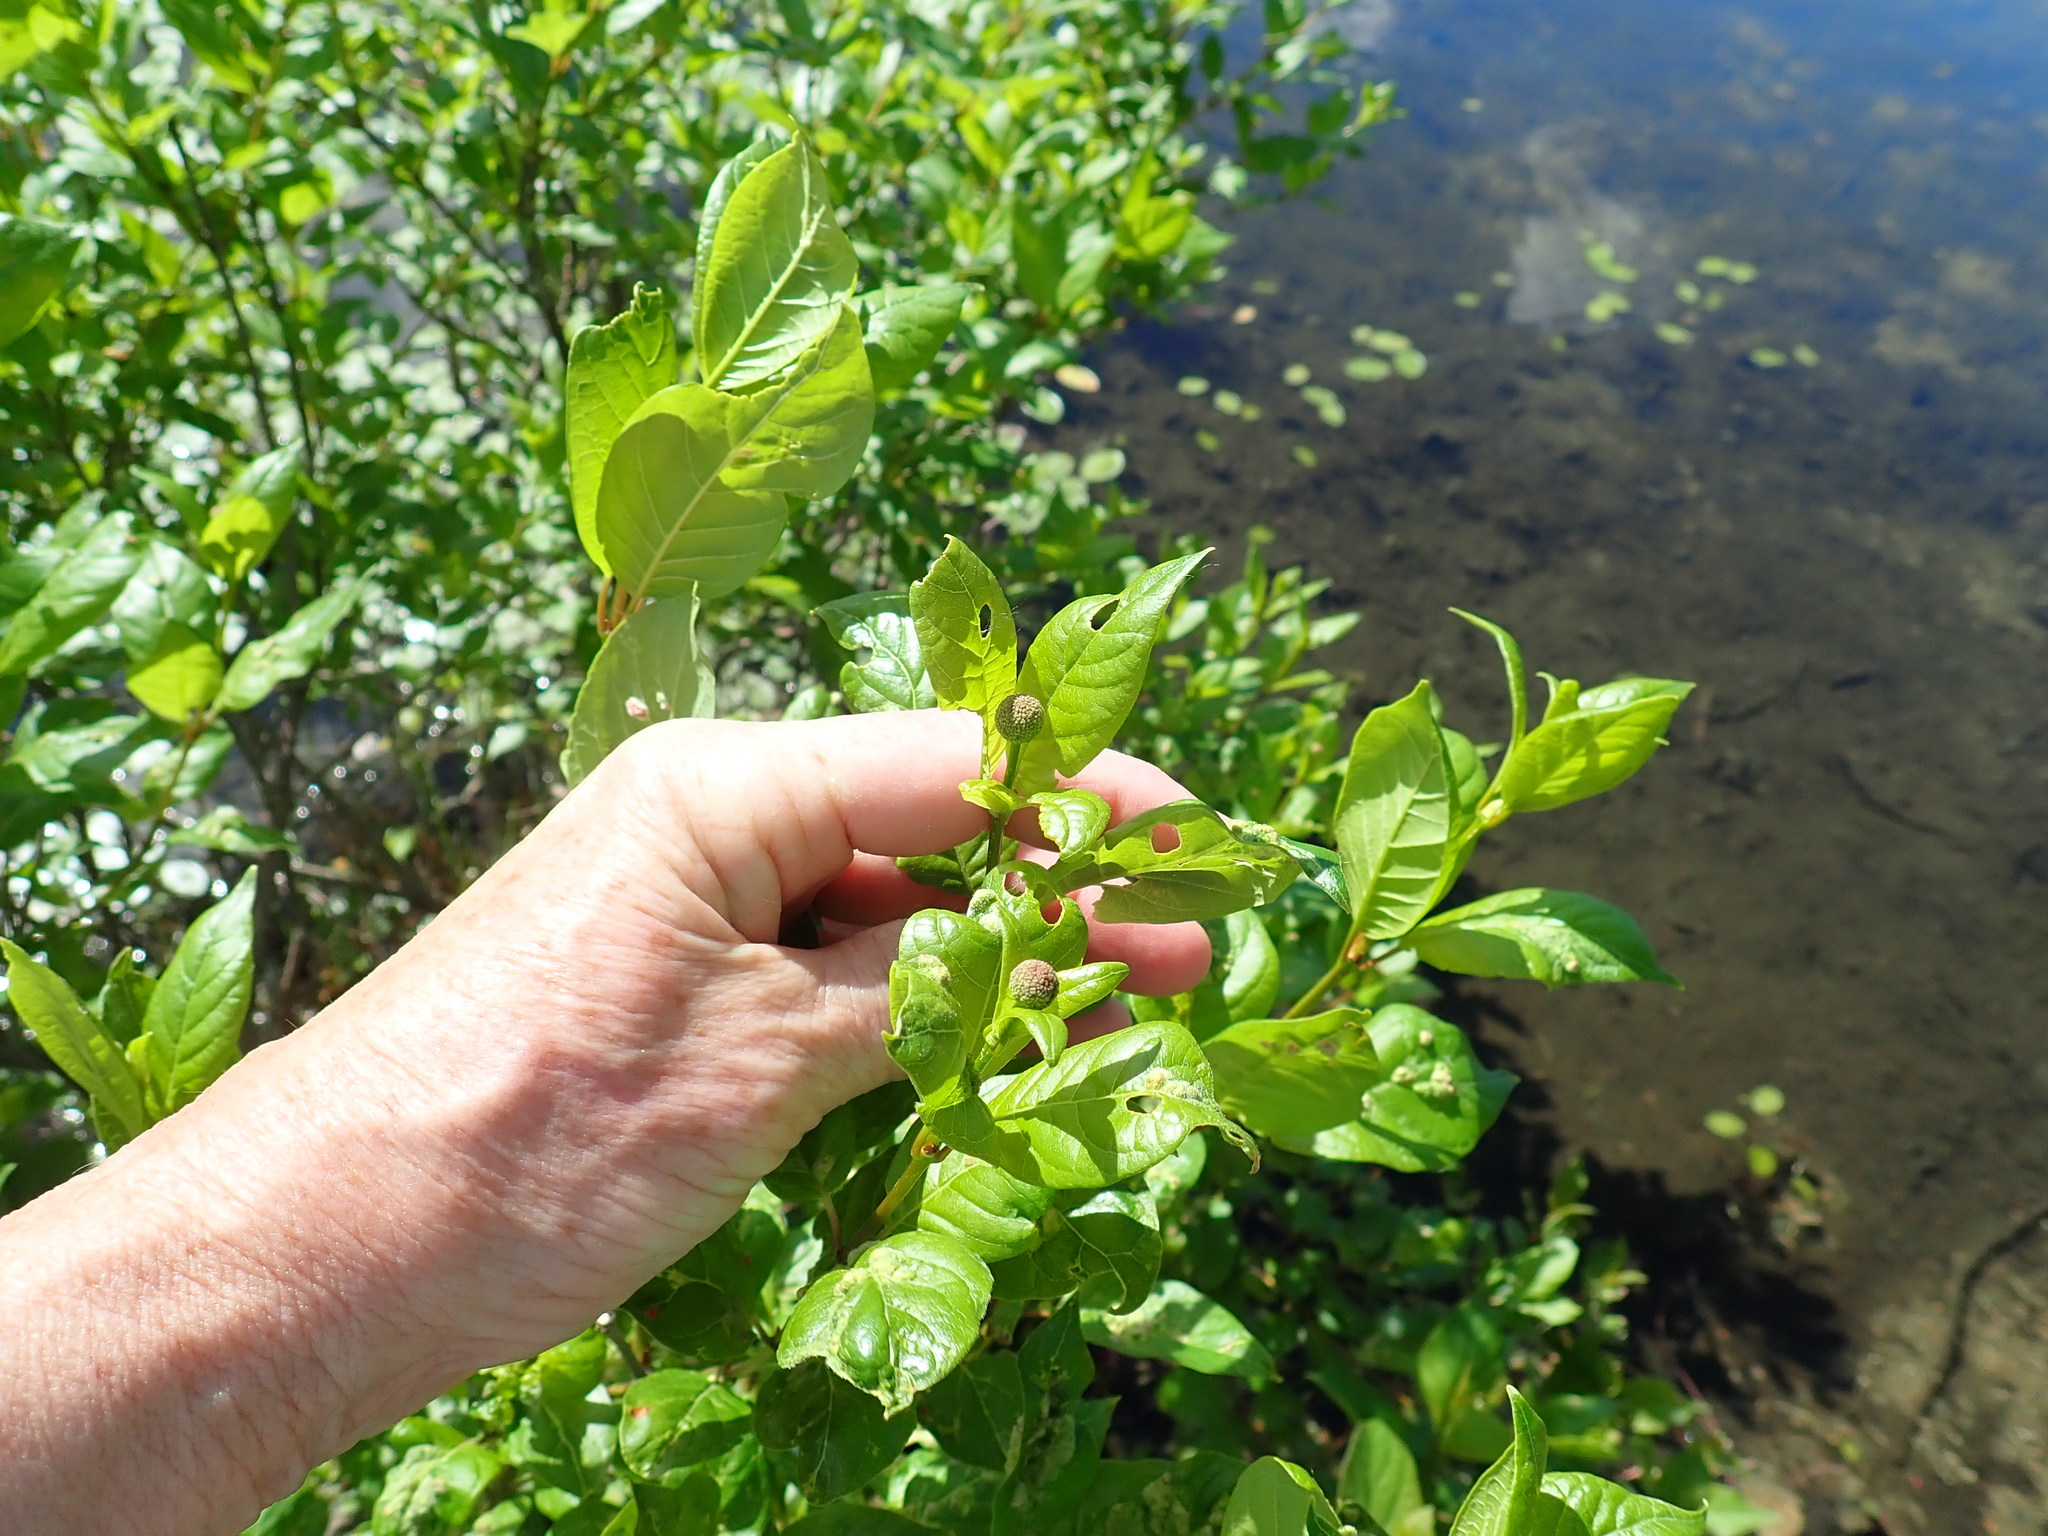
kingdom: Plantae
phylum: Tracheophyta
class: Magnoliopsida
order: Gentianales
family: Rubiaceae
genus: Cephalanthus
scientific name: Cephalanthus occidentalis
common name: Button-willow
